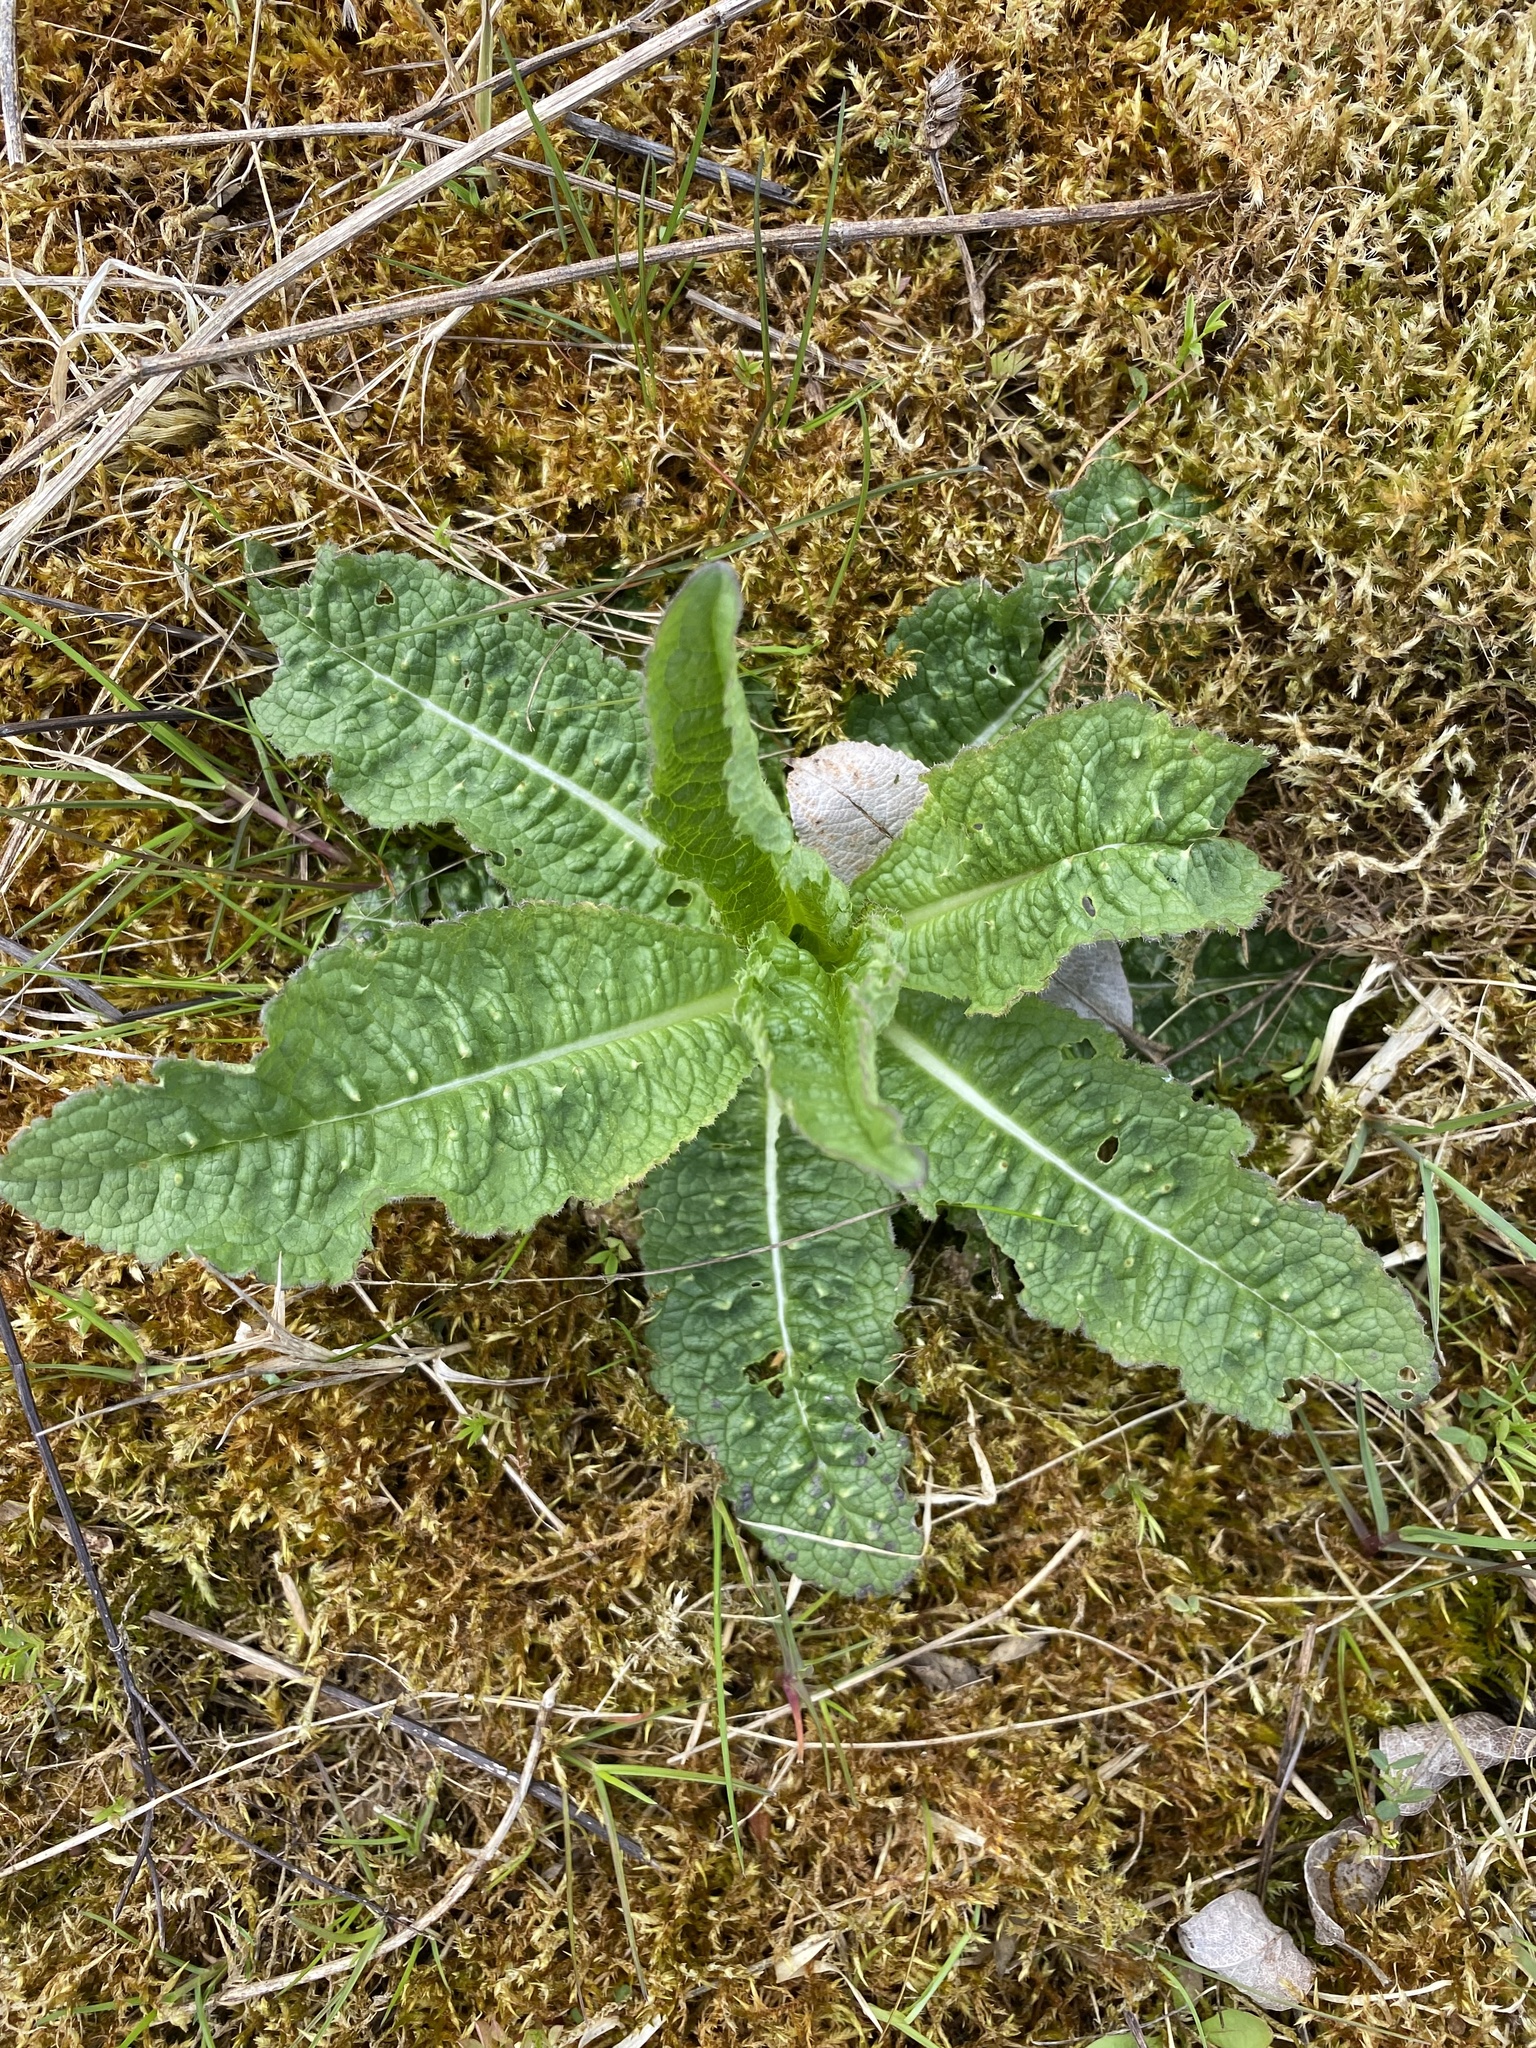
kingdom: Plantae
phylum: Tracheophyta
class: Magnoliopsida
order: Dipsacales
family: Caprifoliaceae
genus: Dipsacus
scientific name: Dipsacus fullonum
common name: Teasel
